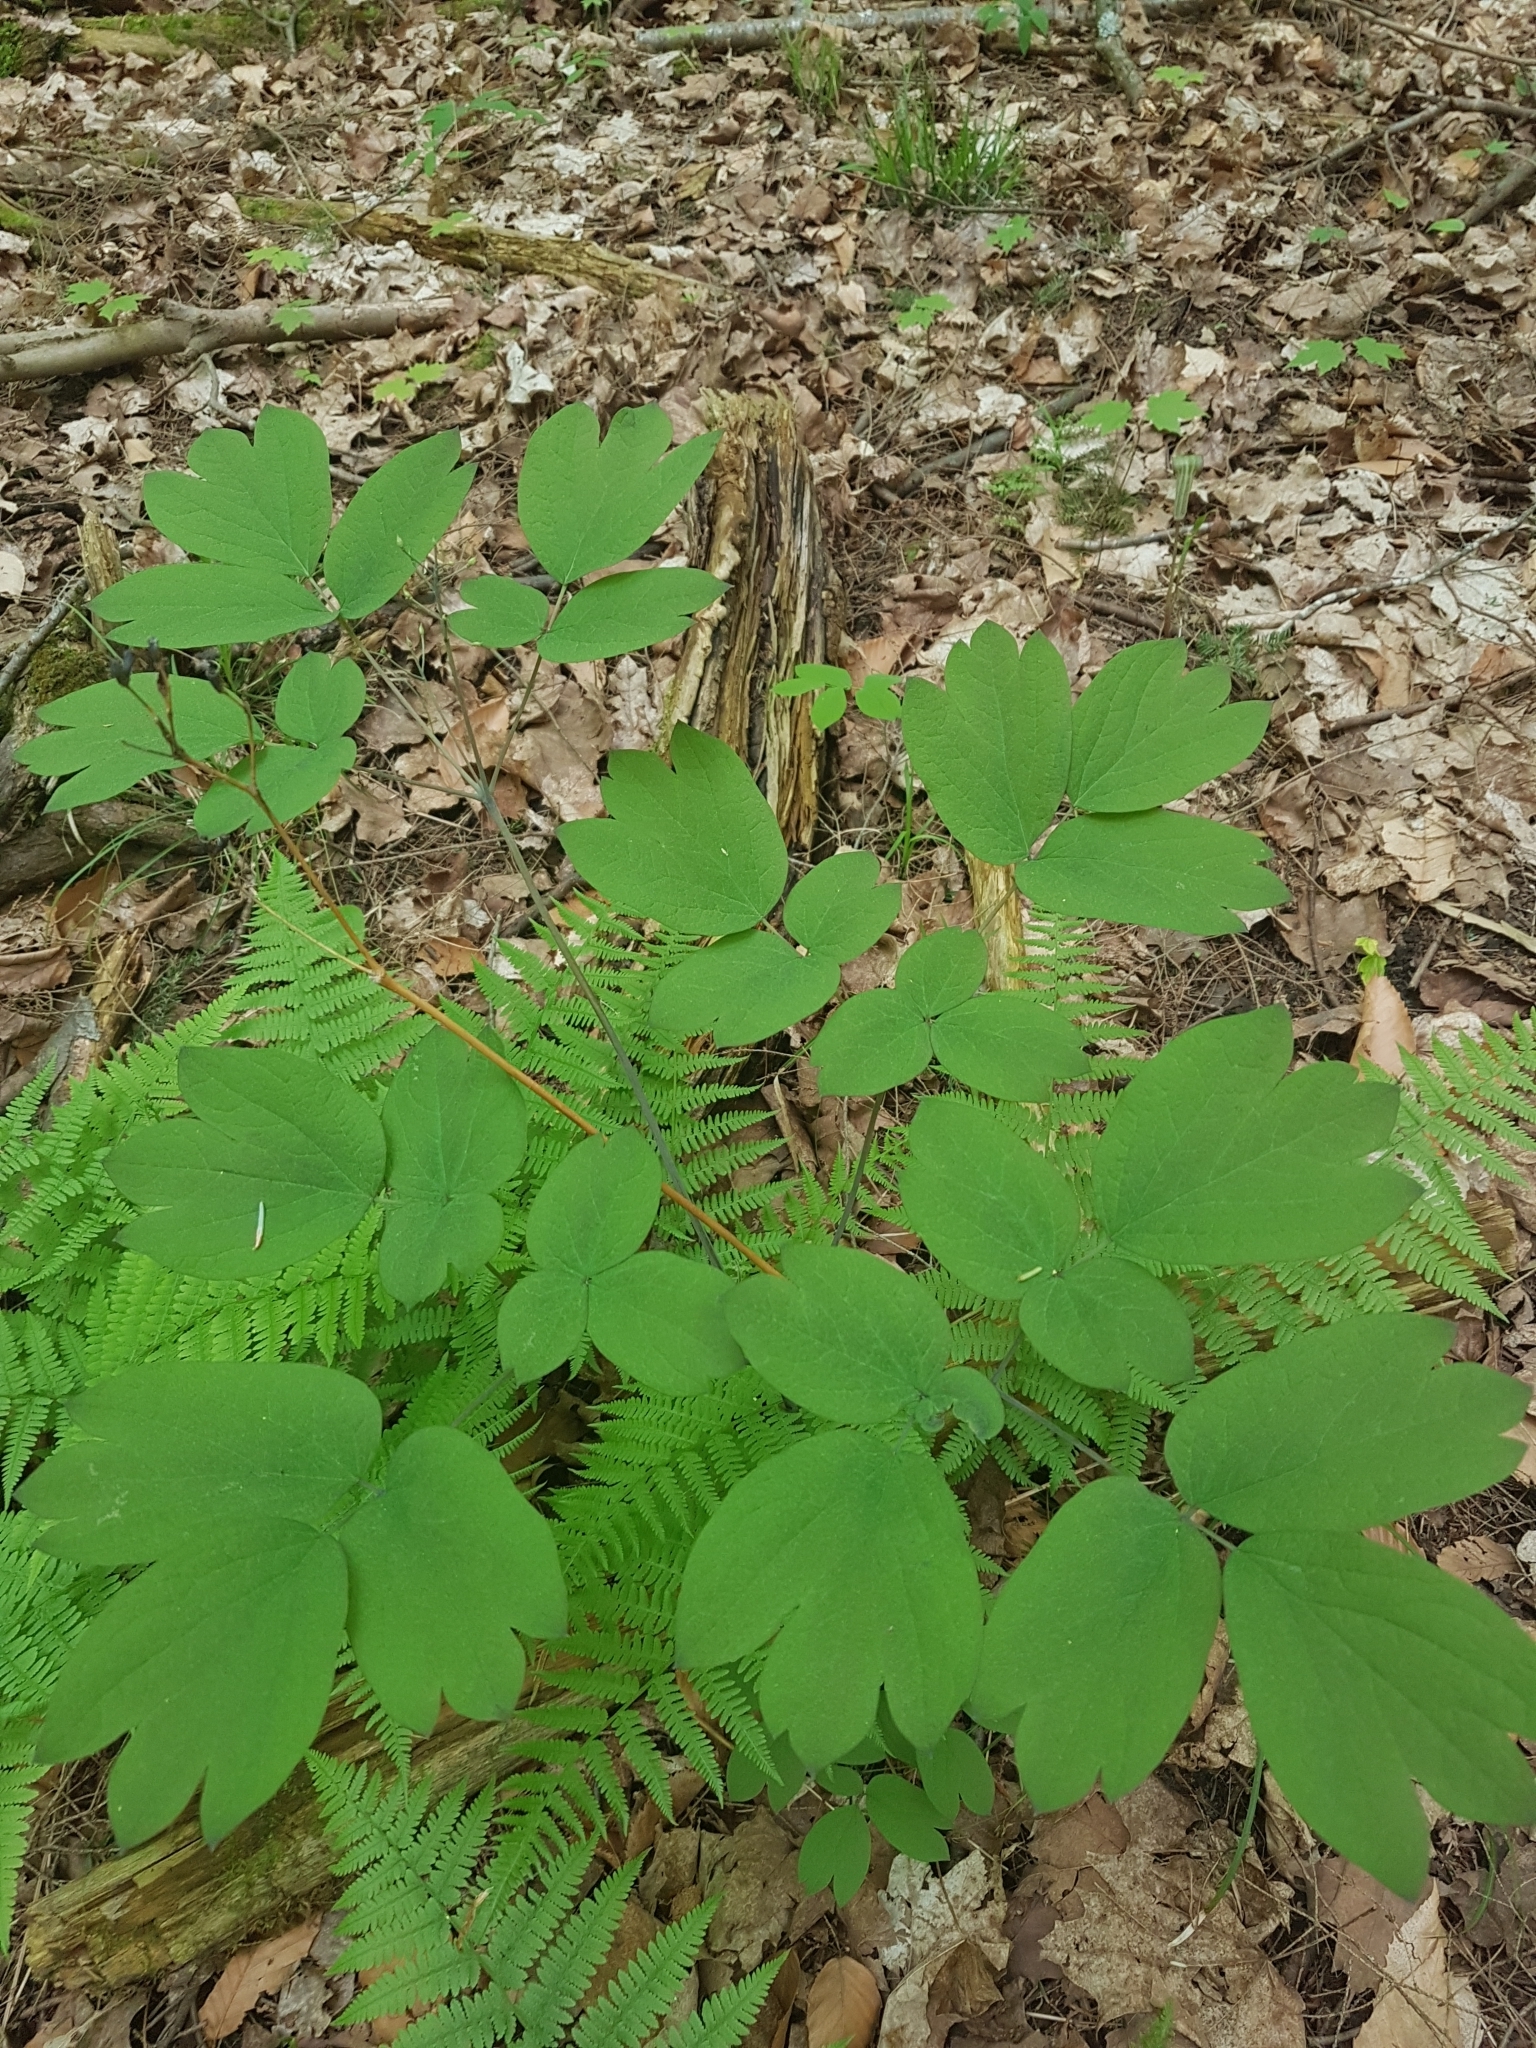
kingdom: Plantae
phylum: Tracheophyta
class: Magnoliopsida
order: Ranunculales
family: Berberidaceae
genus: Caulophyllum
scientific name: Caulophyllum giganteum
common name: Blue cohosh
